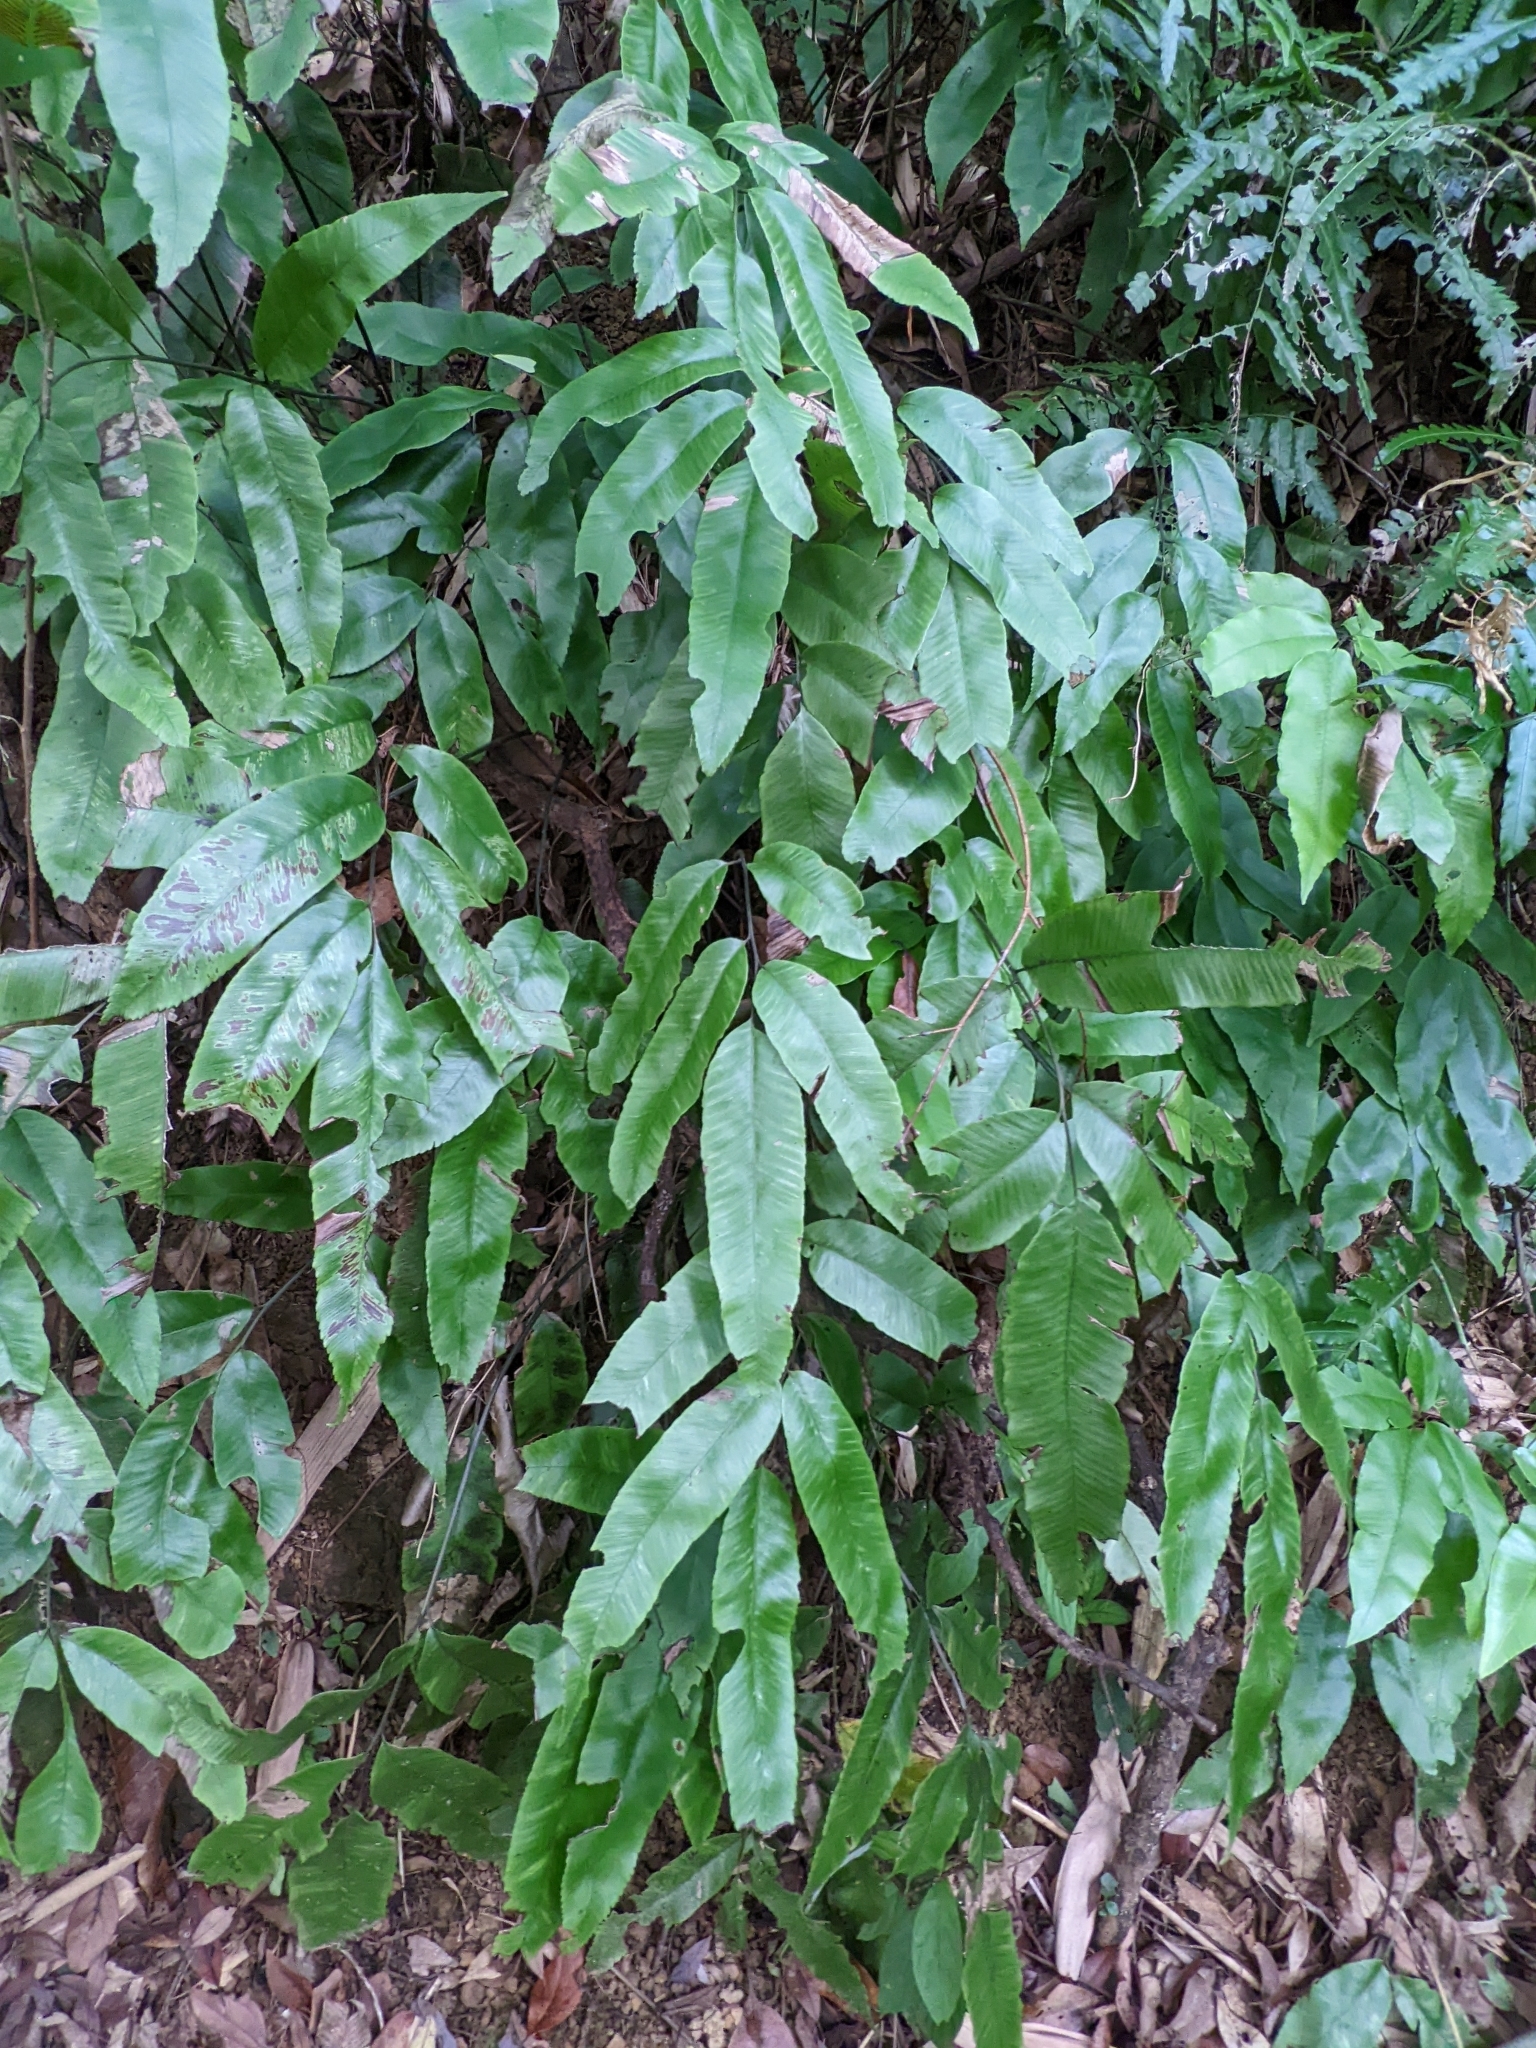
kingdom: Plantae
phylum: Tracheophyta
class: Polypodiopsida
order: Polypodiales
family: Athyriaceae
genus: Diplazium
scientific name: Diplazium lineolatum
